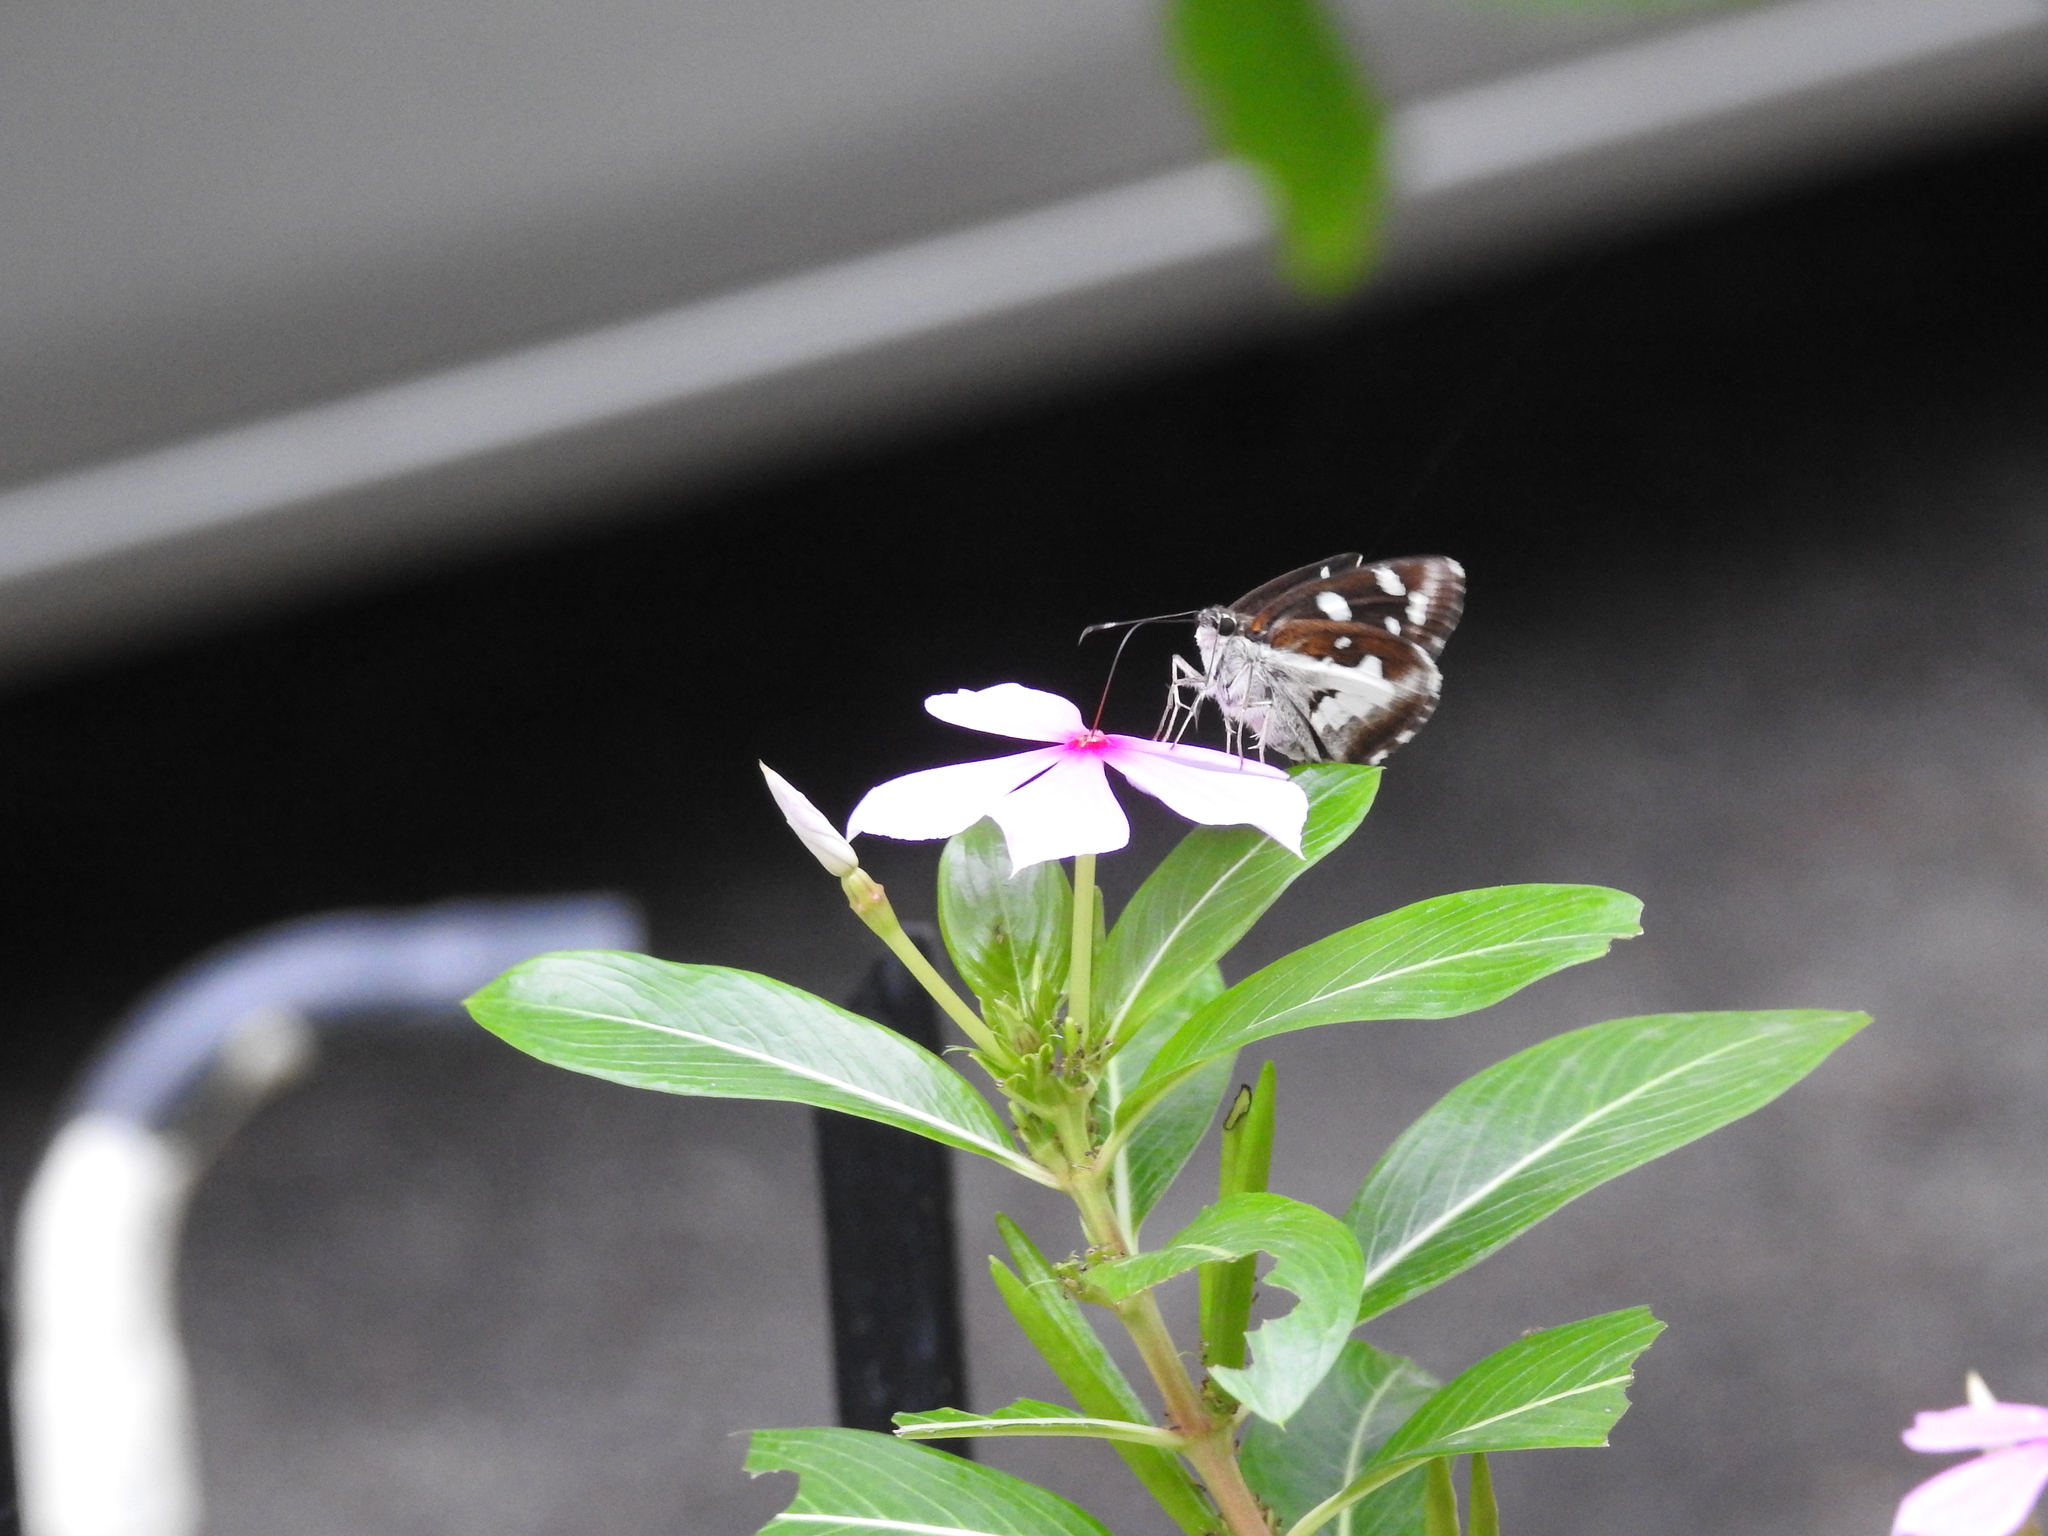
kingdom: Animalia
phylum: Arthropoda
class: Insecta
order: Lepidoptera
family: Hesperiidae
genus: Udaspes
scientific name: Udaspes folus
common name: Grass demon
